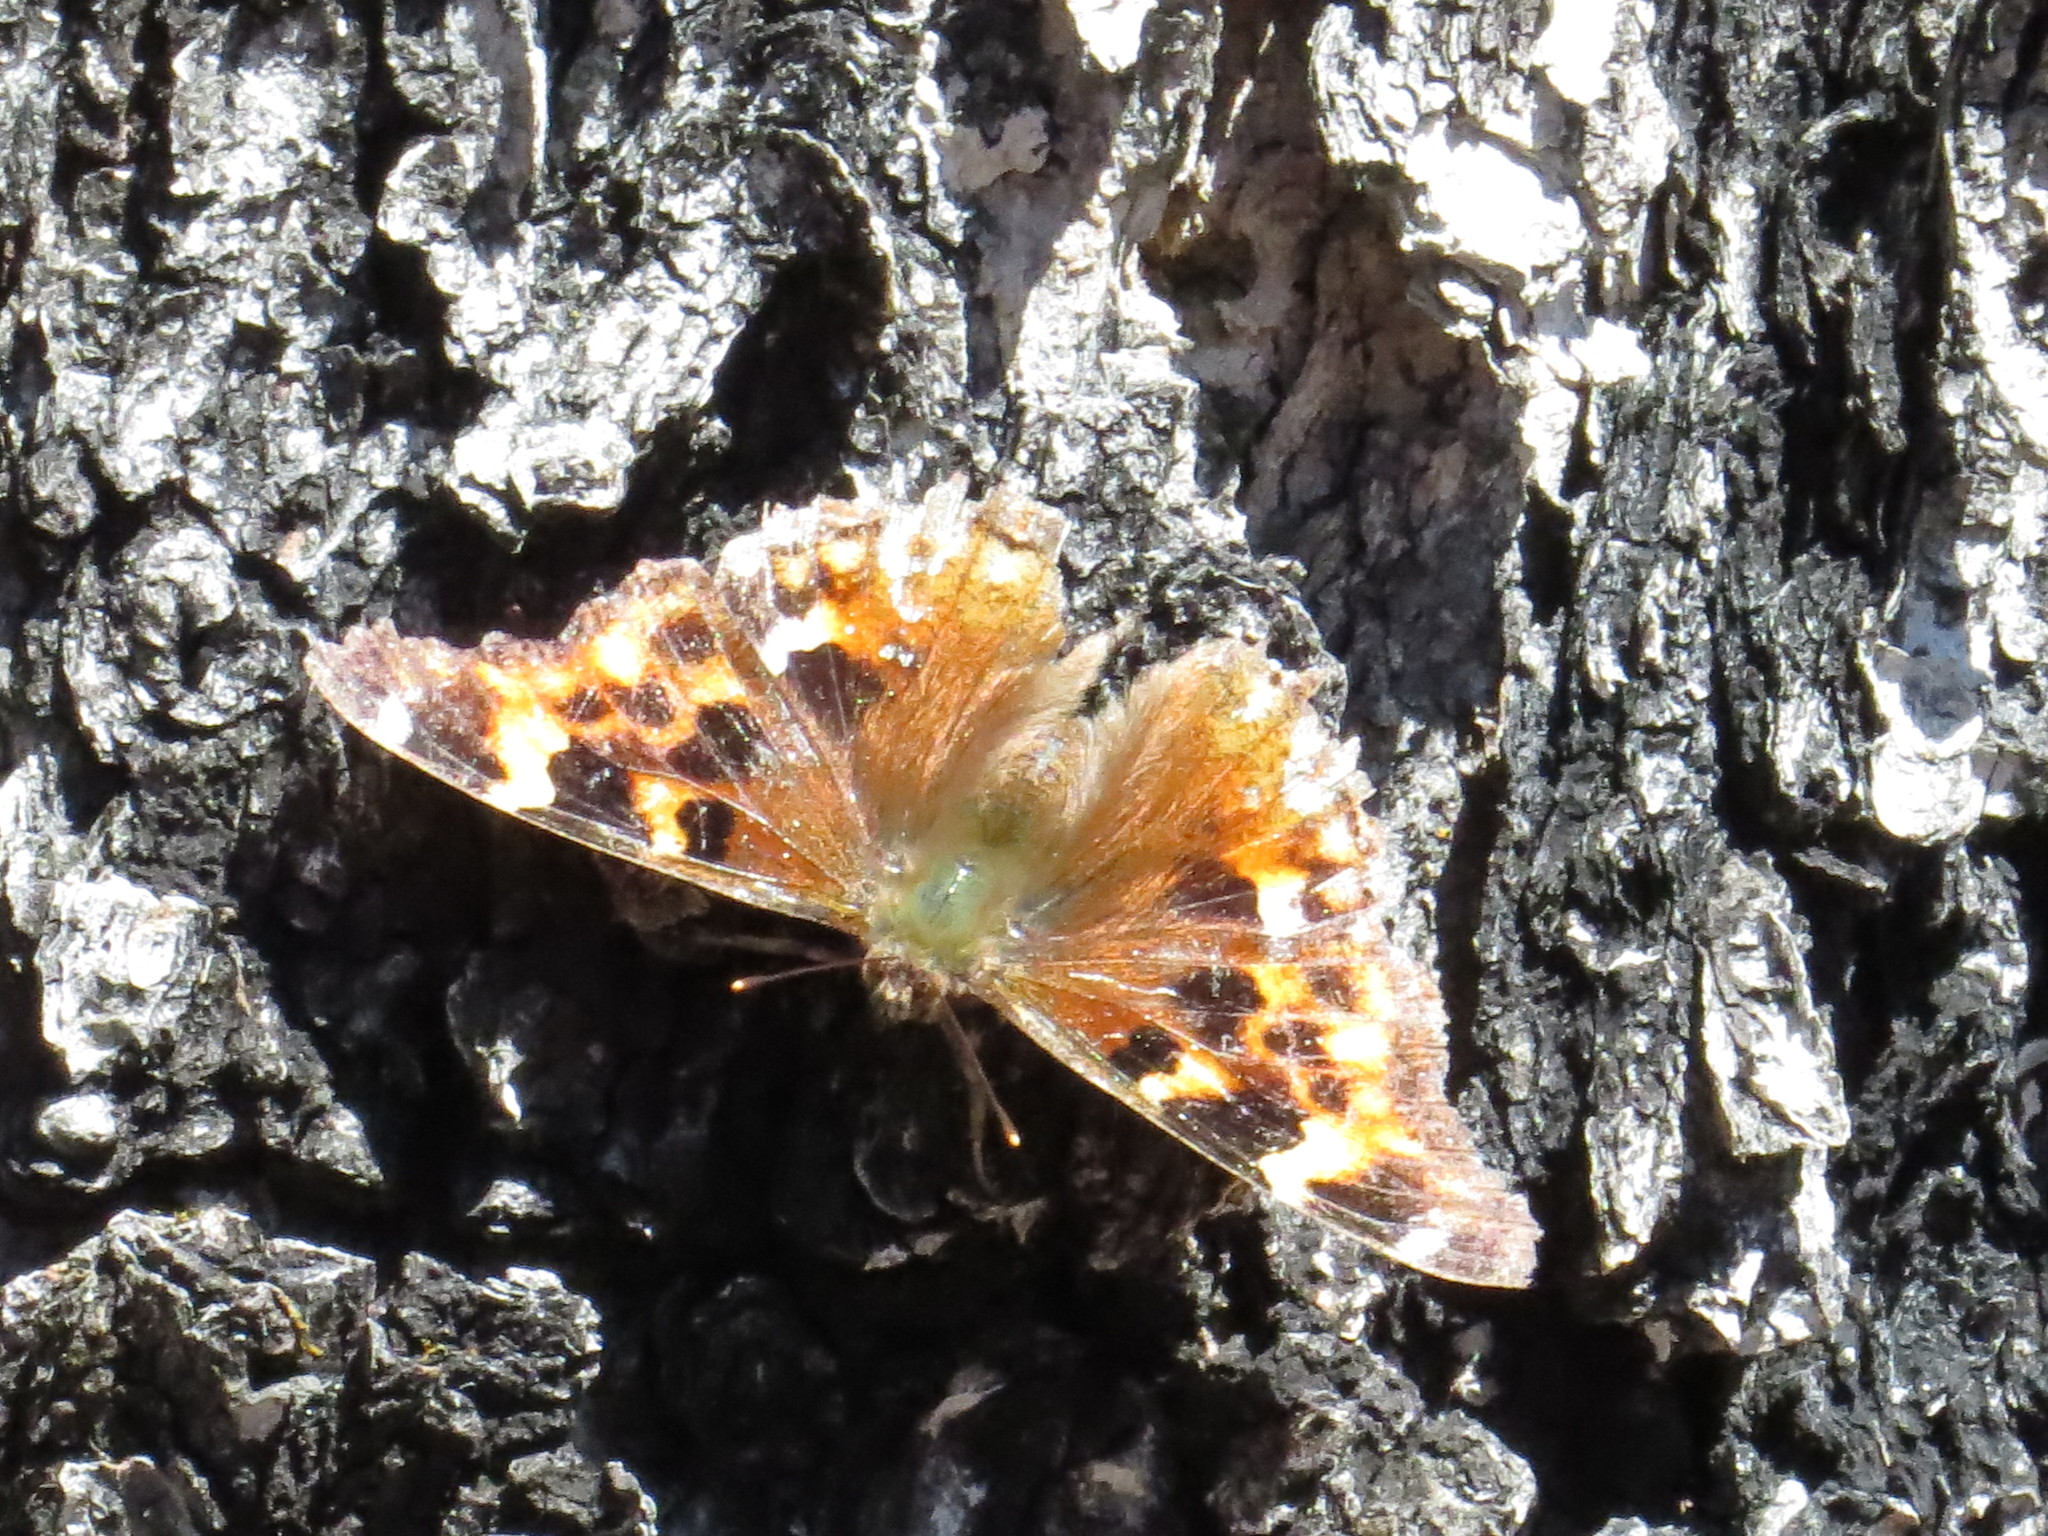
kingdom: Animalia
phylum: Arthropoda
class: Insecta
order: Lepidoptera
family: Nymphalidae
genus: Polygonia
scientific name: Polygonia vaualbum
